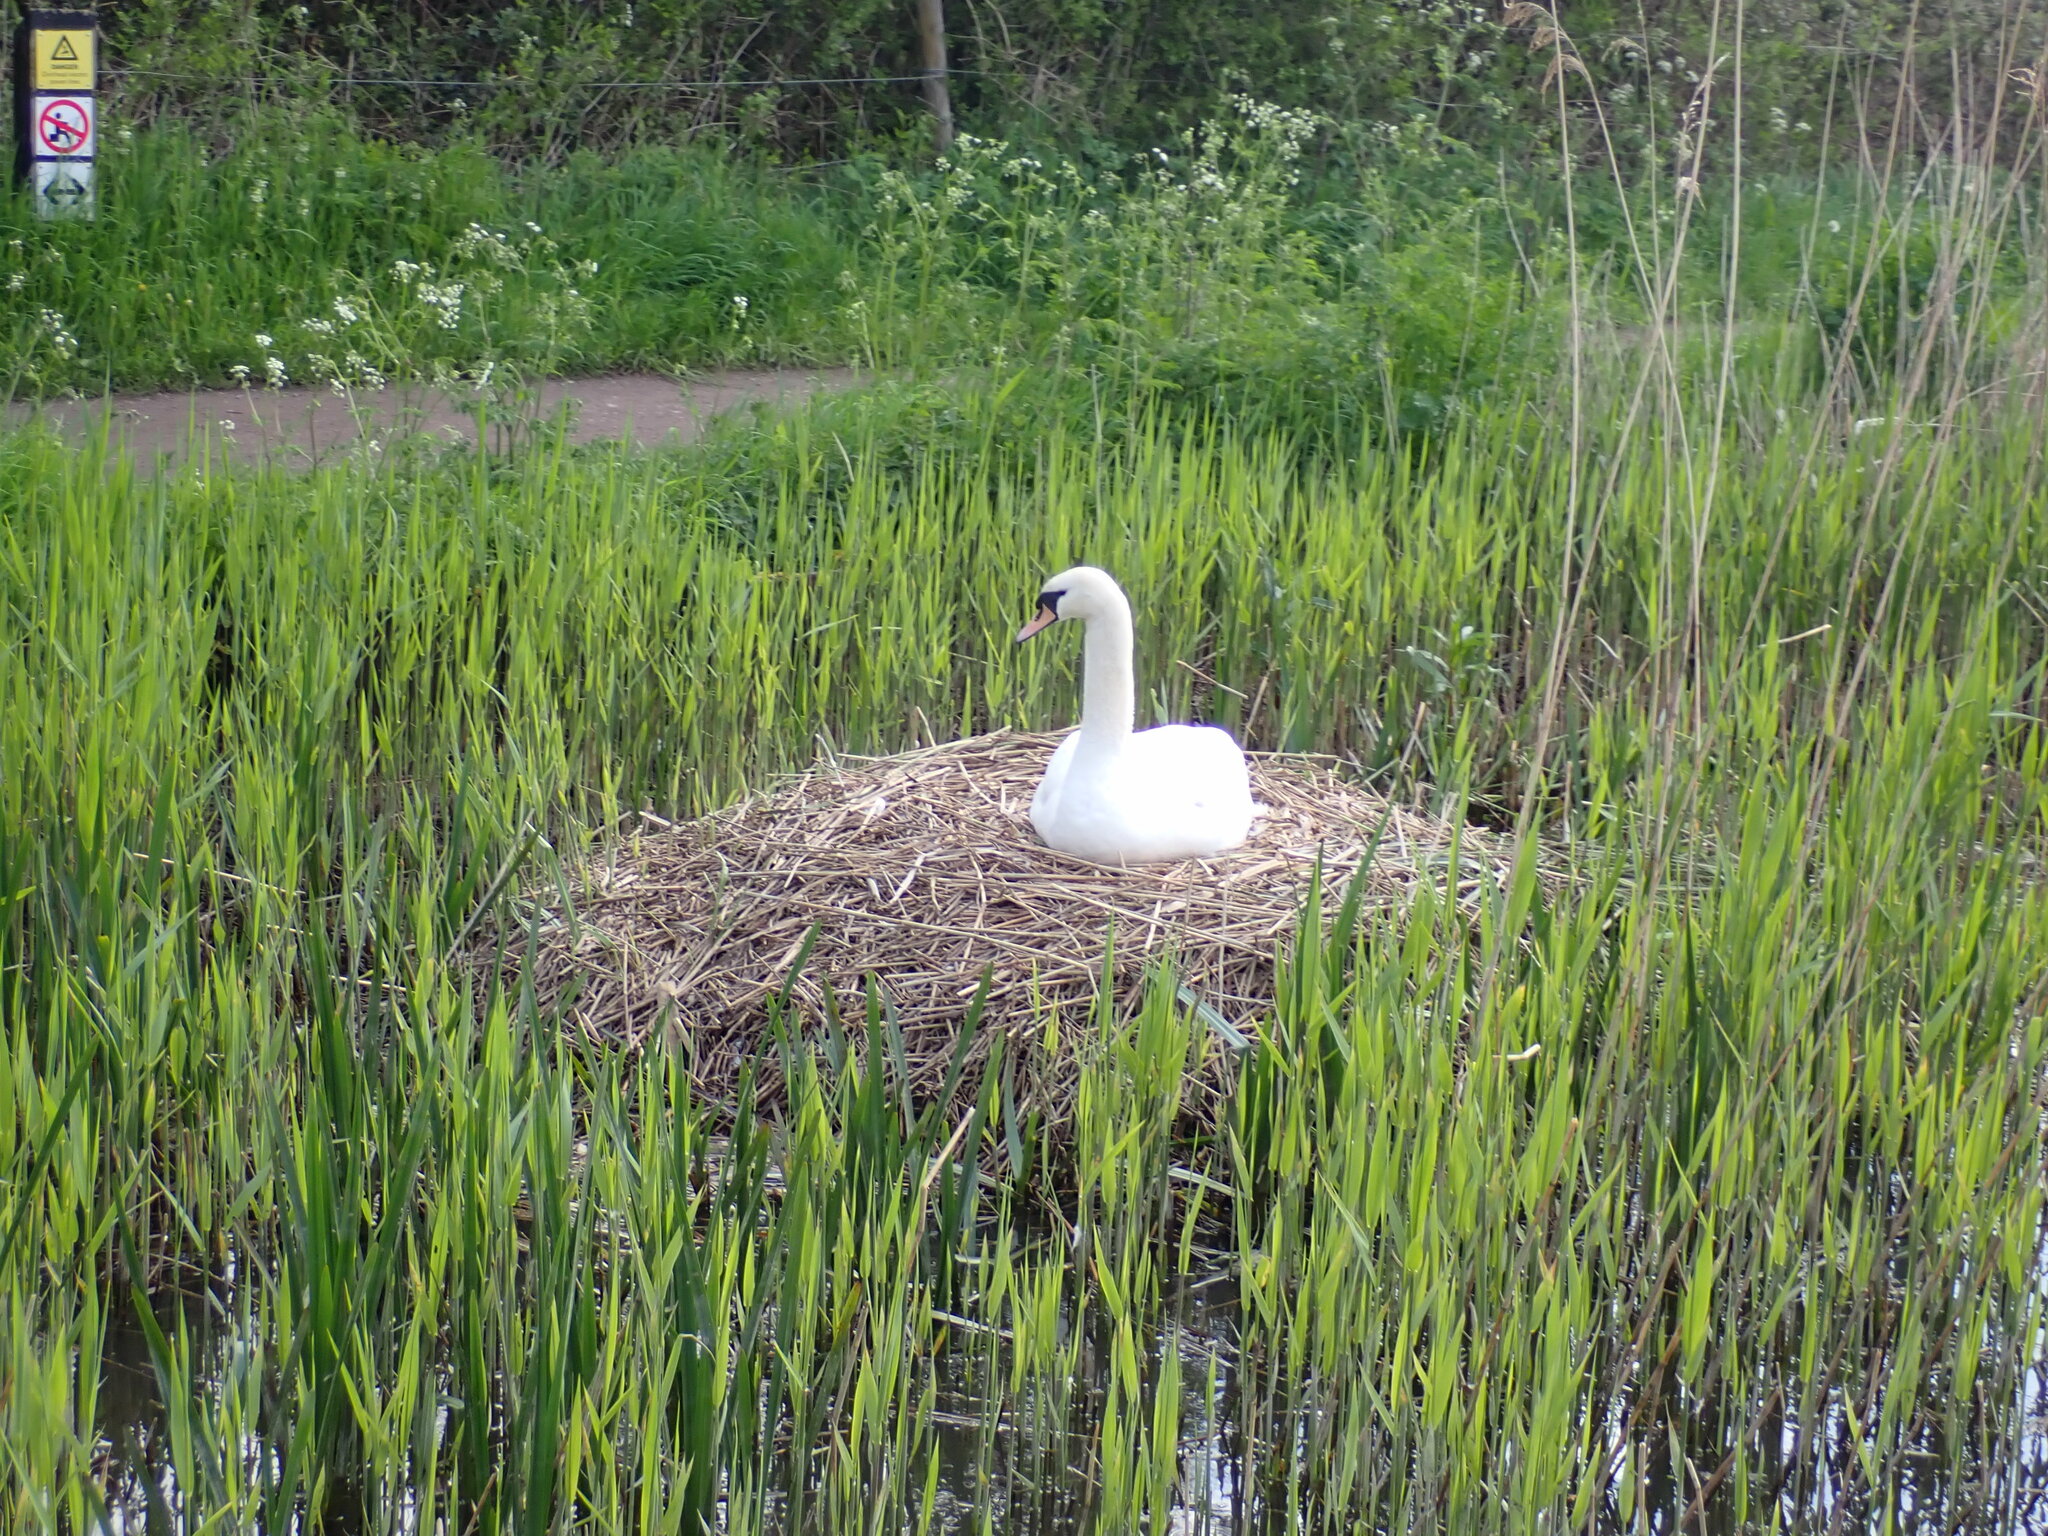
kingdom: Animalia
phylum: Chordata
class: Aves
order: Anseriformes
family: Anatidae
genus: Cygnus
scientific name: Cygnus olor
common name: Mute swan
